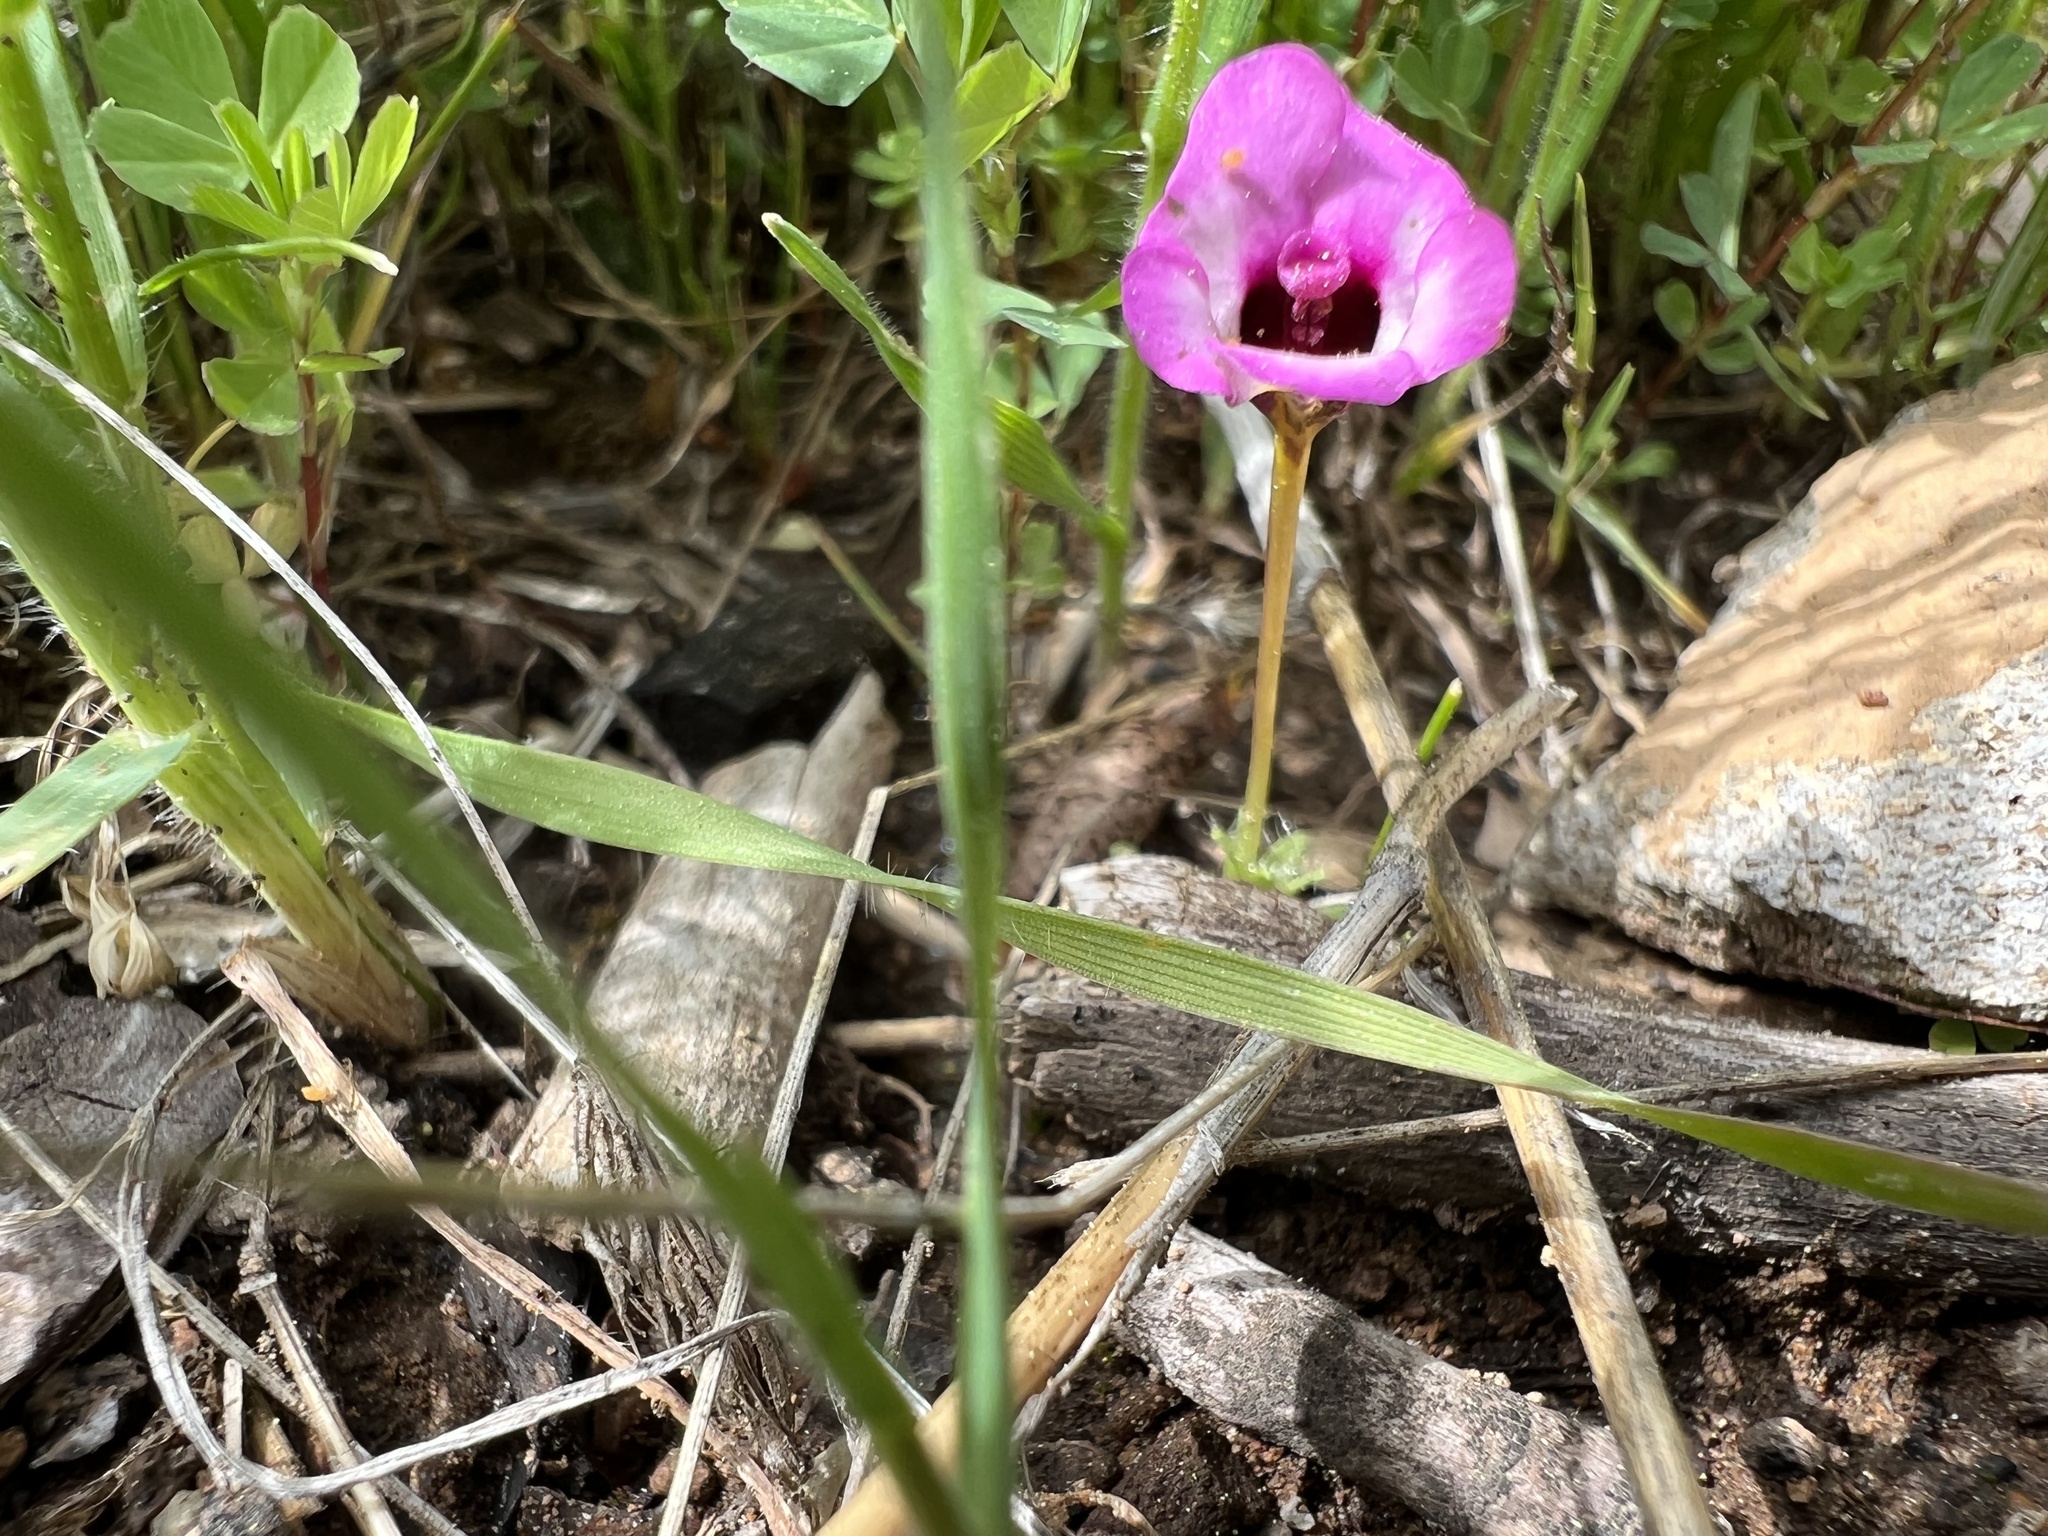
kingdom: Plantae
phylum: Tracheophyta
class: Magnoliopsida
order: Lamiales
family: Phrymaceae
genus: Diplacus
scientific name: Diplacus angustatus
